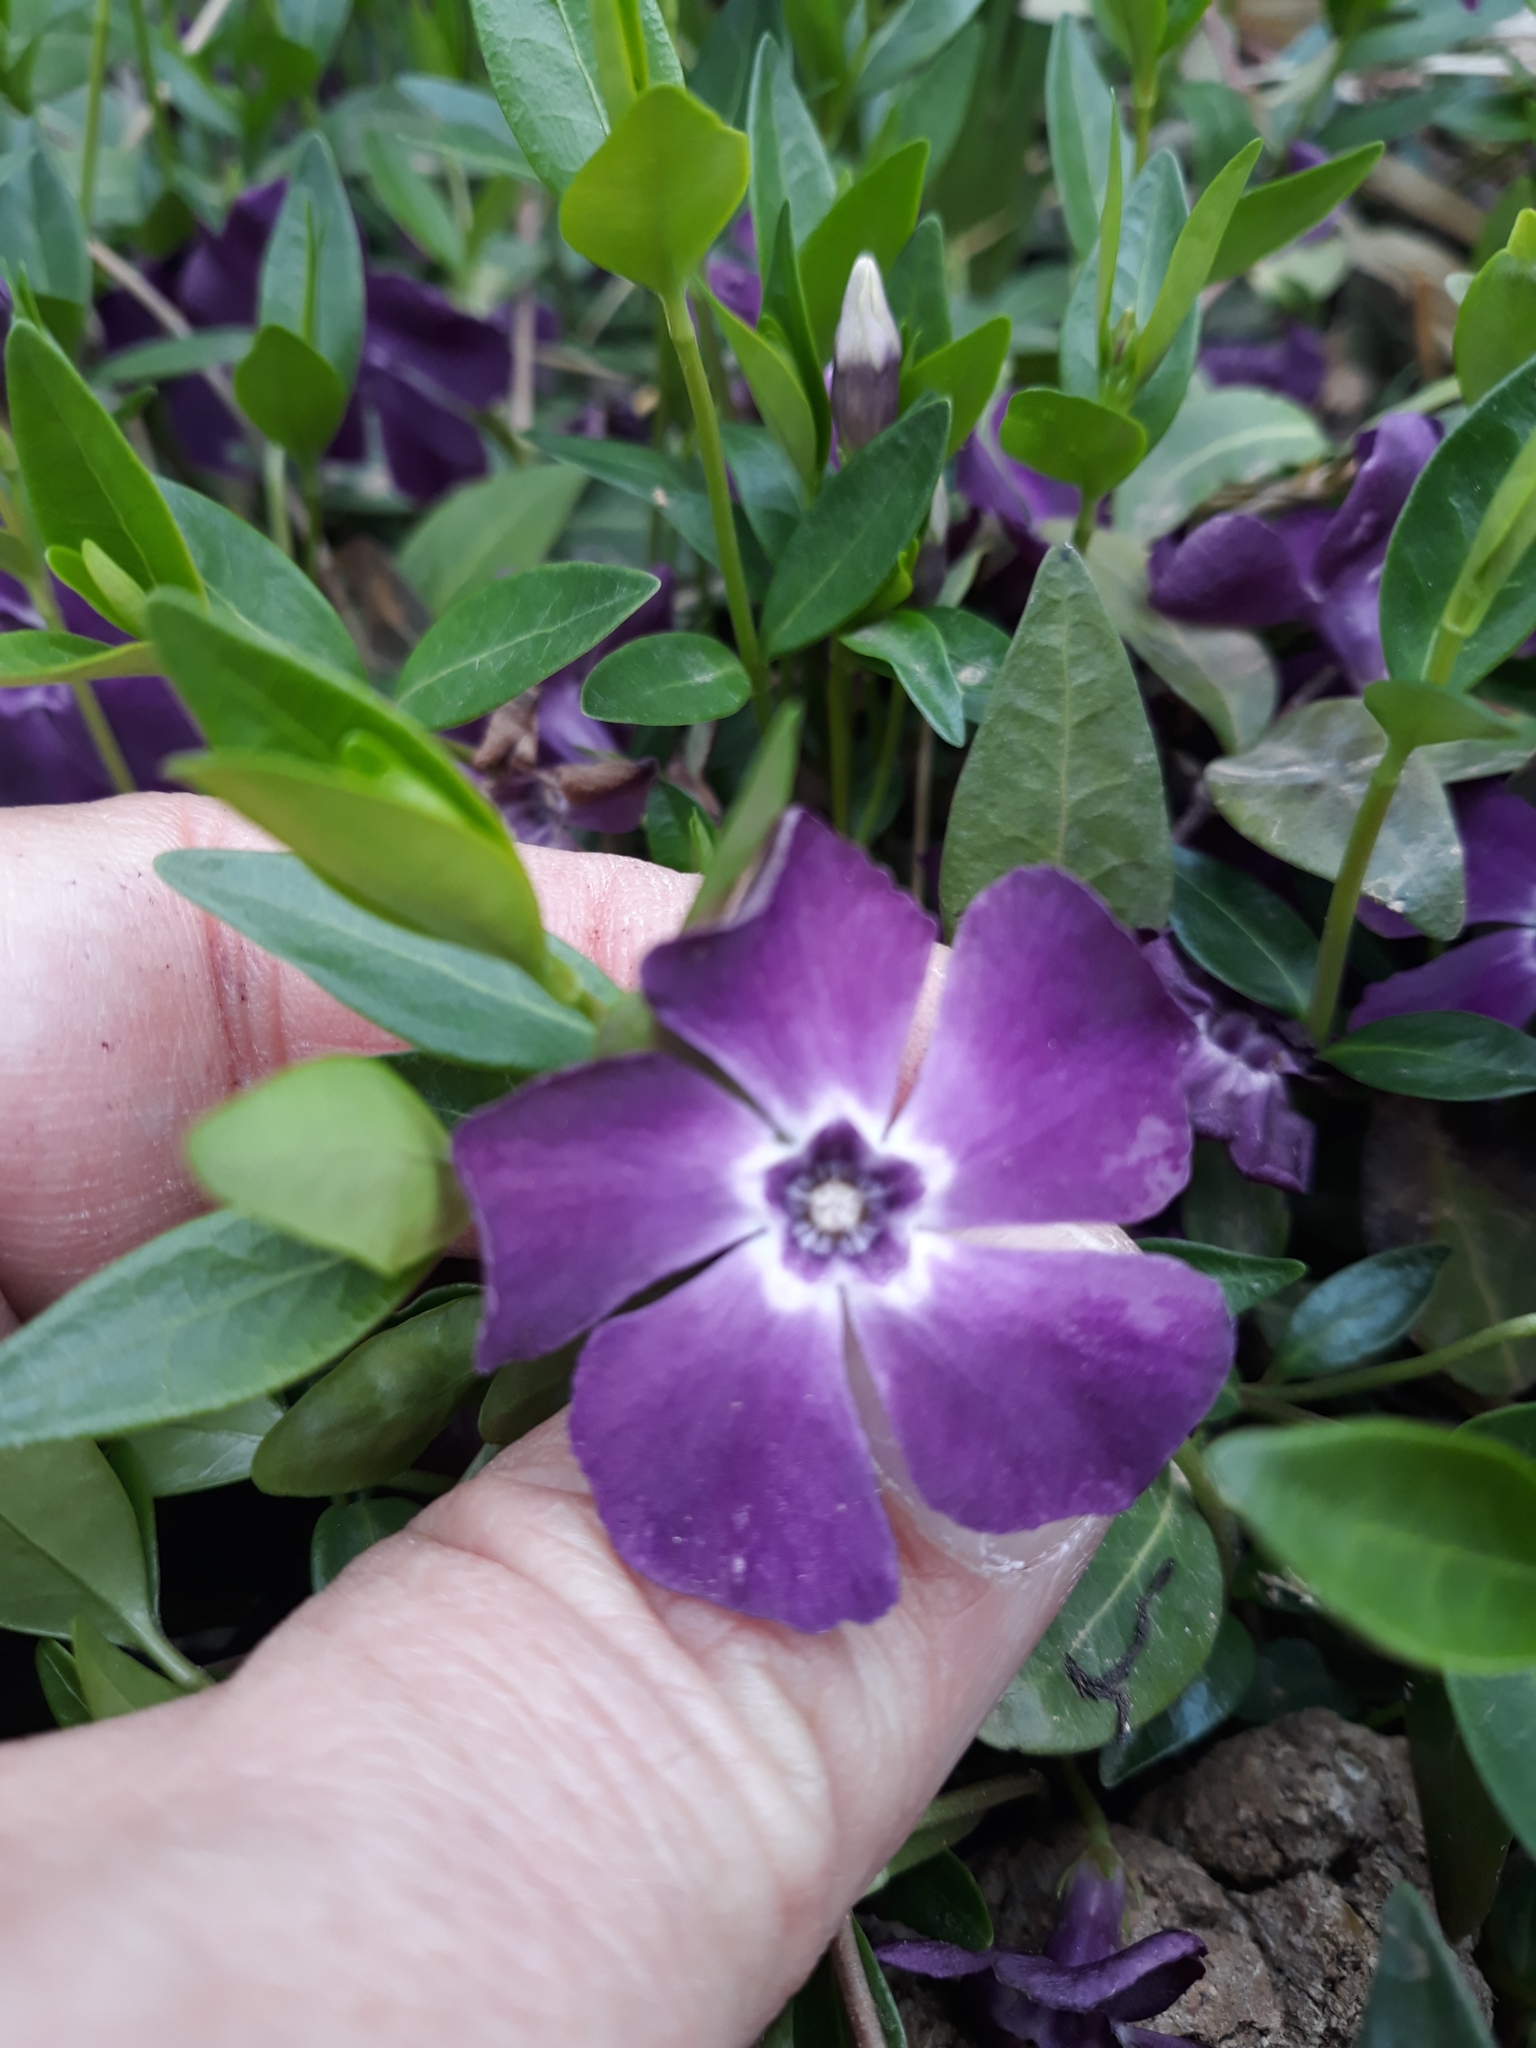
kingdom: Plantae
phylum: Tracheophyta
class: Magnoliopsida
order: Gentianales
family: Apocynaceae
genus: Vinca
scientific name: Vinca minor
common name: Lesser periwinkle
